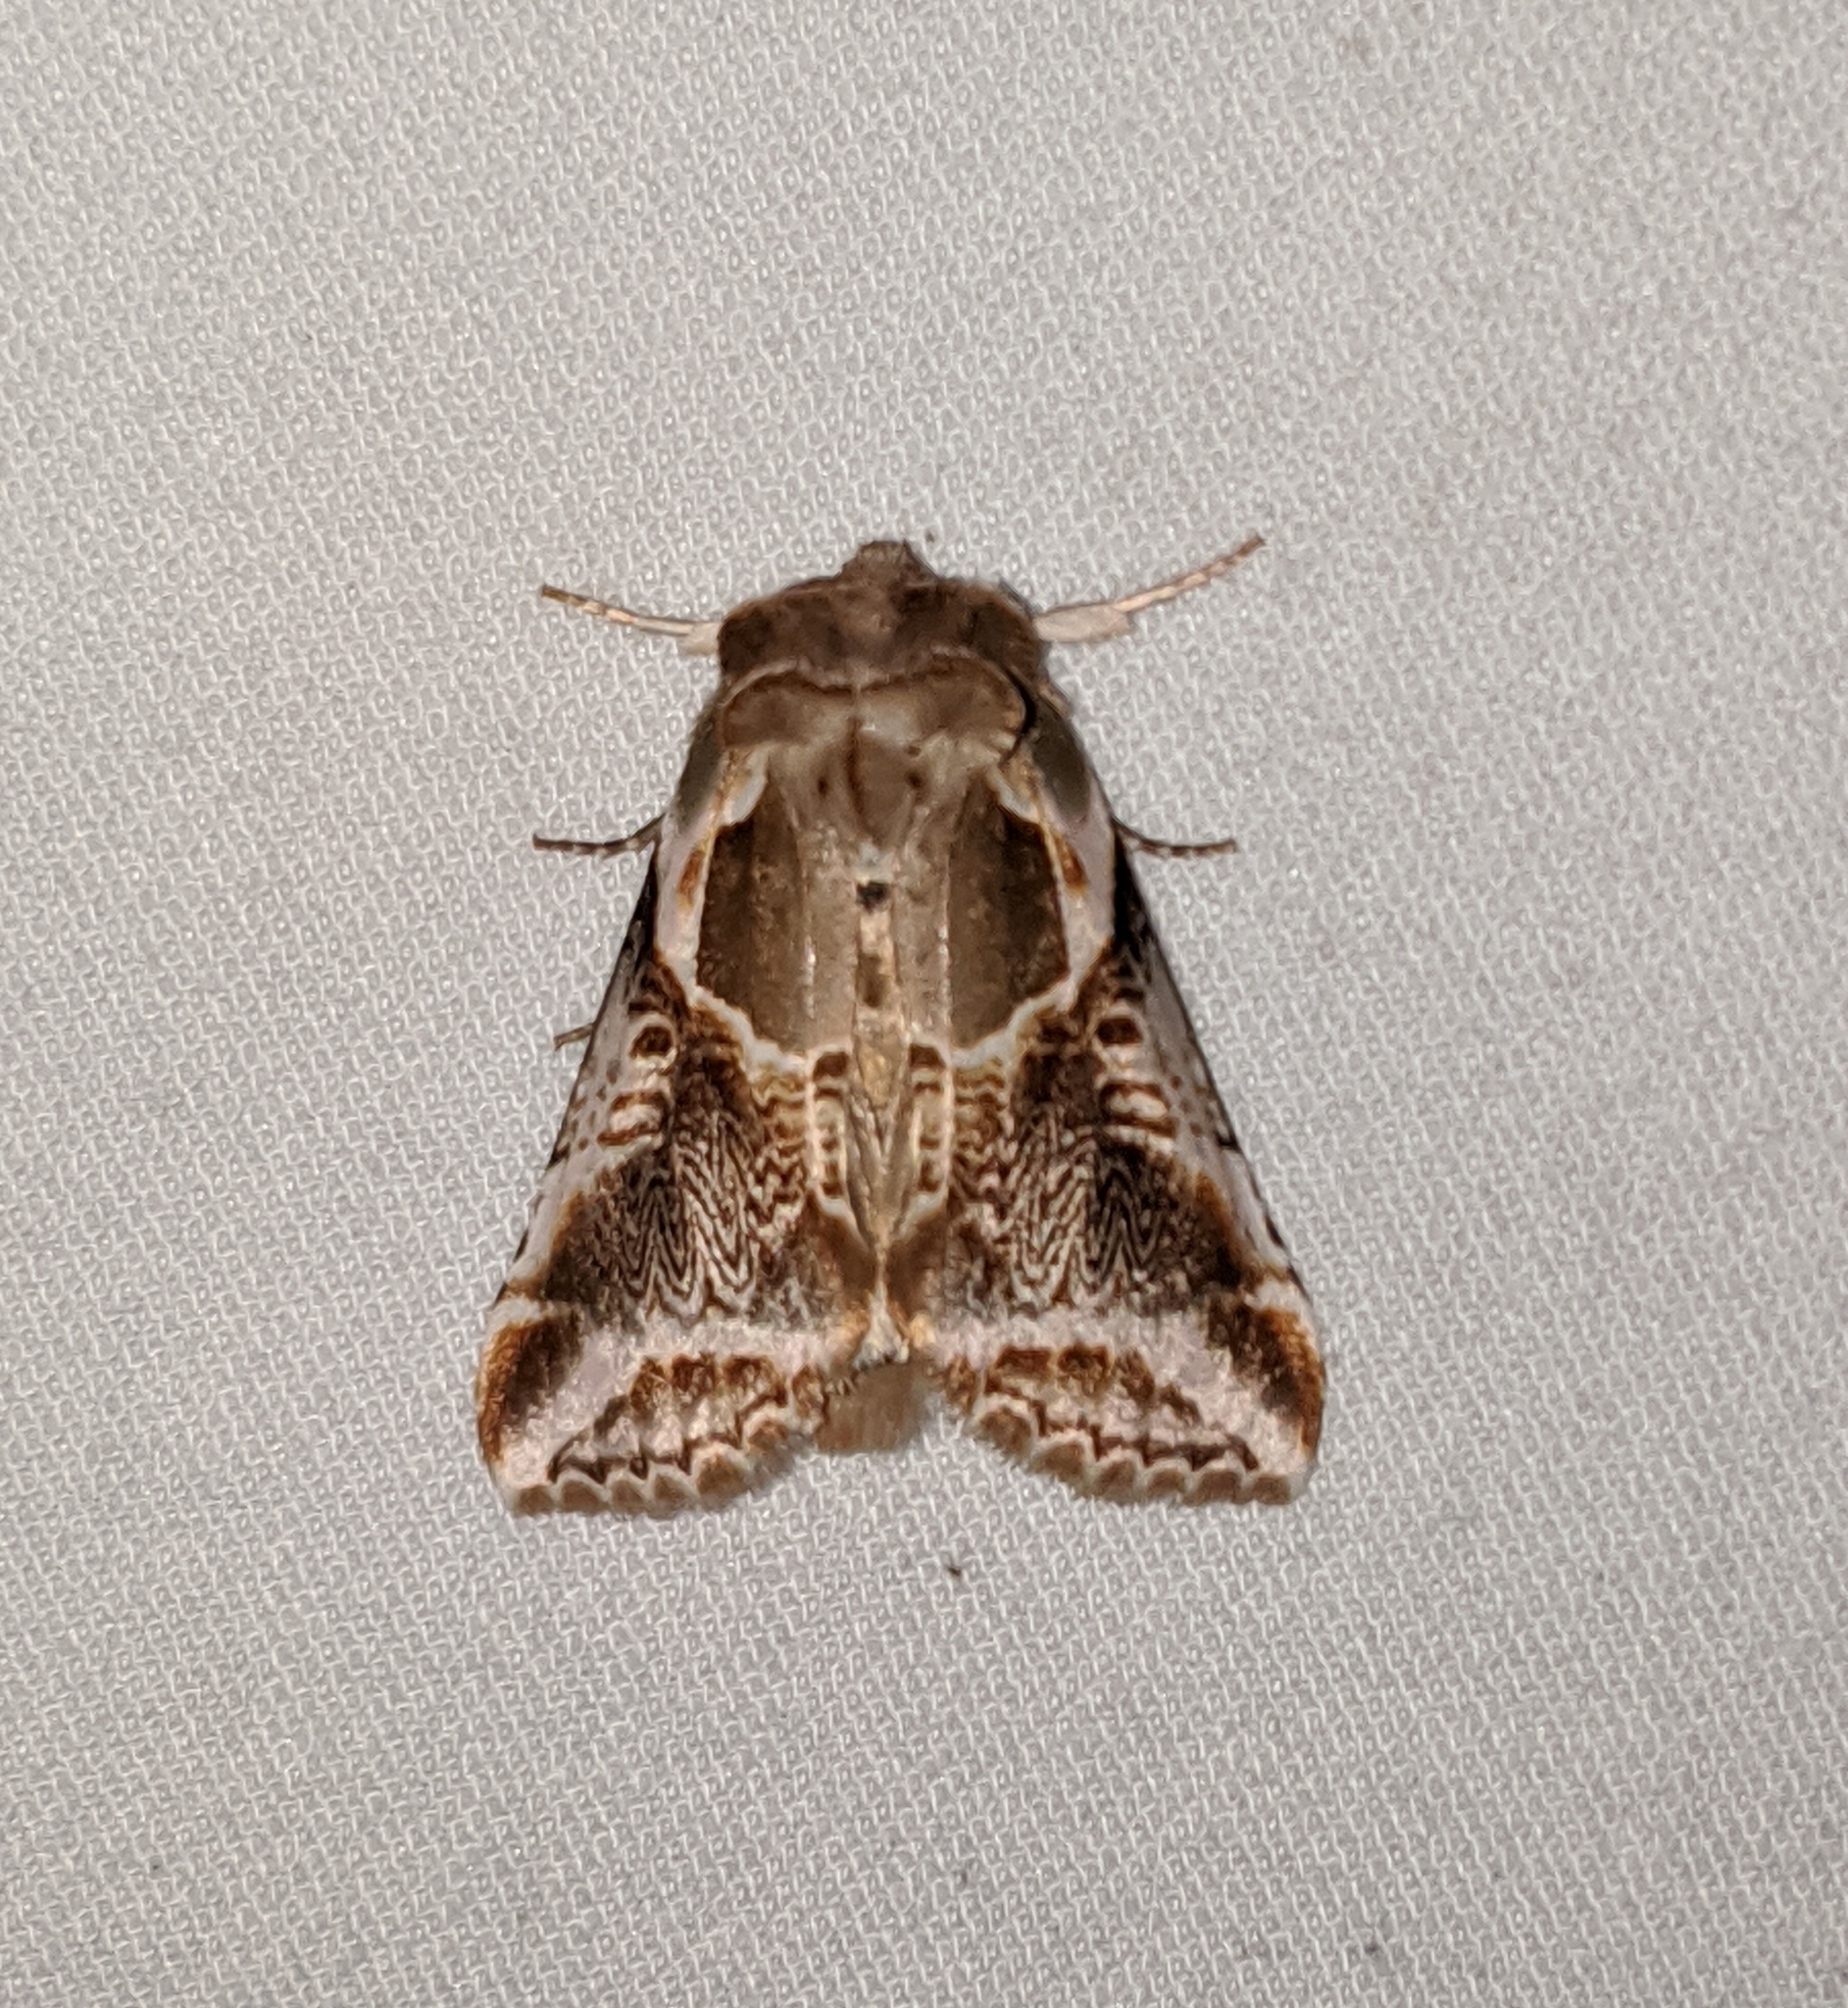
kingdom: Animalia
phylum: Arthropoda
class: Insecta
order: Lepidoptera
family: Drepanidae
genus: Habrosyne
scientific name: Habrosyne scripta
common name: Lettered habrosyne moth
